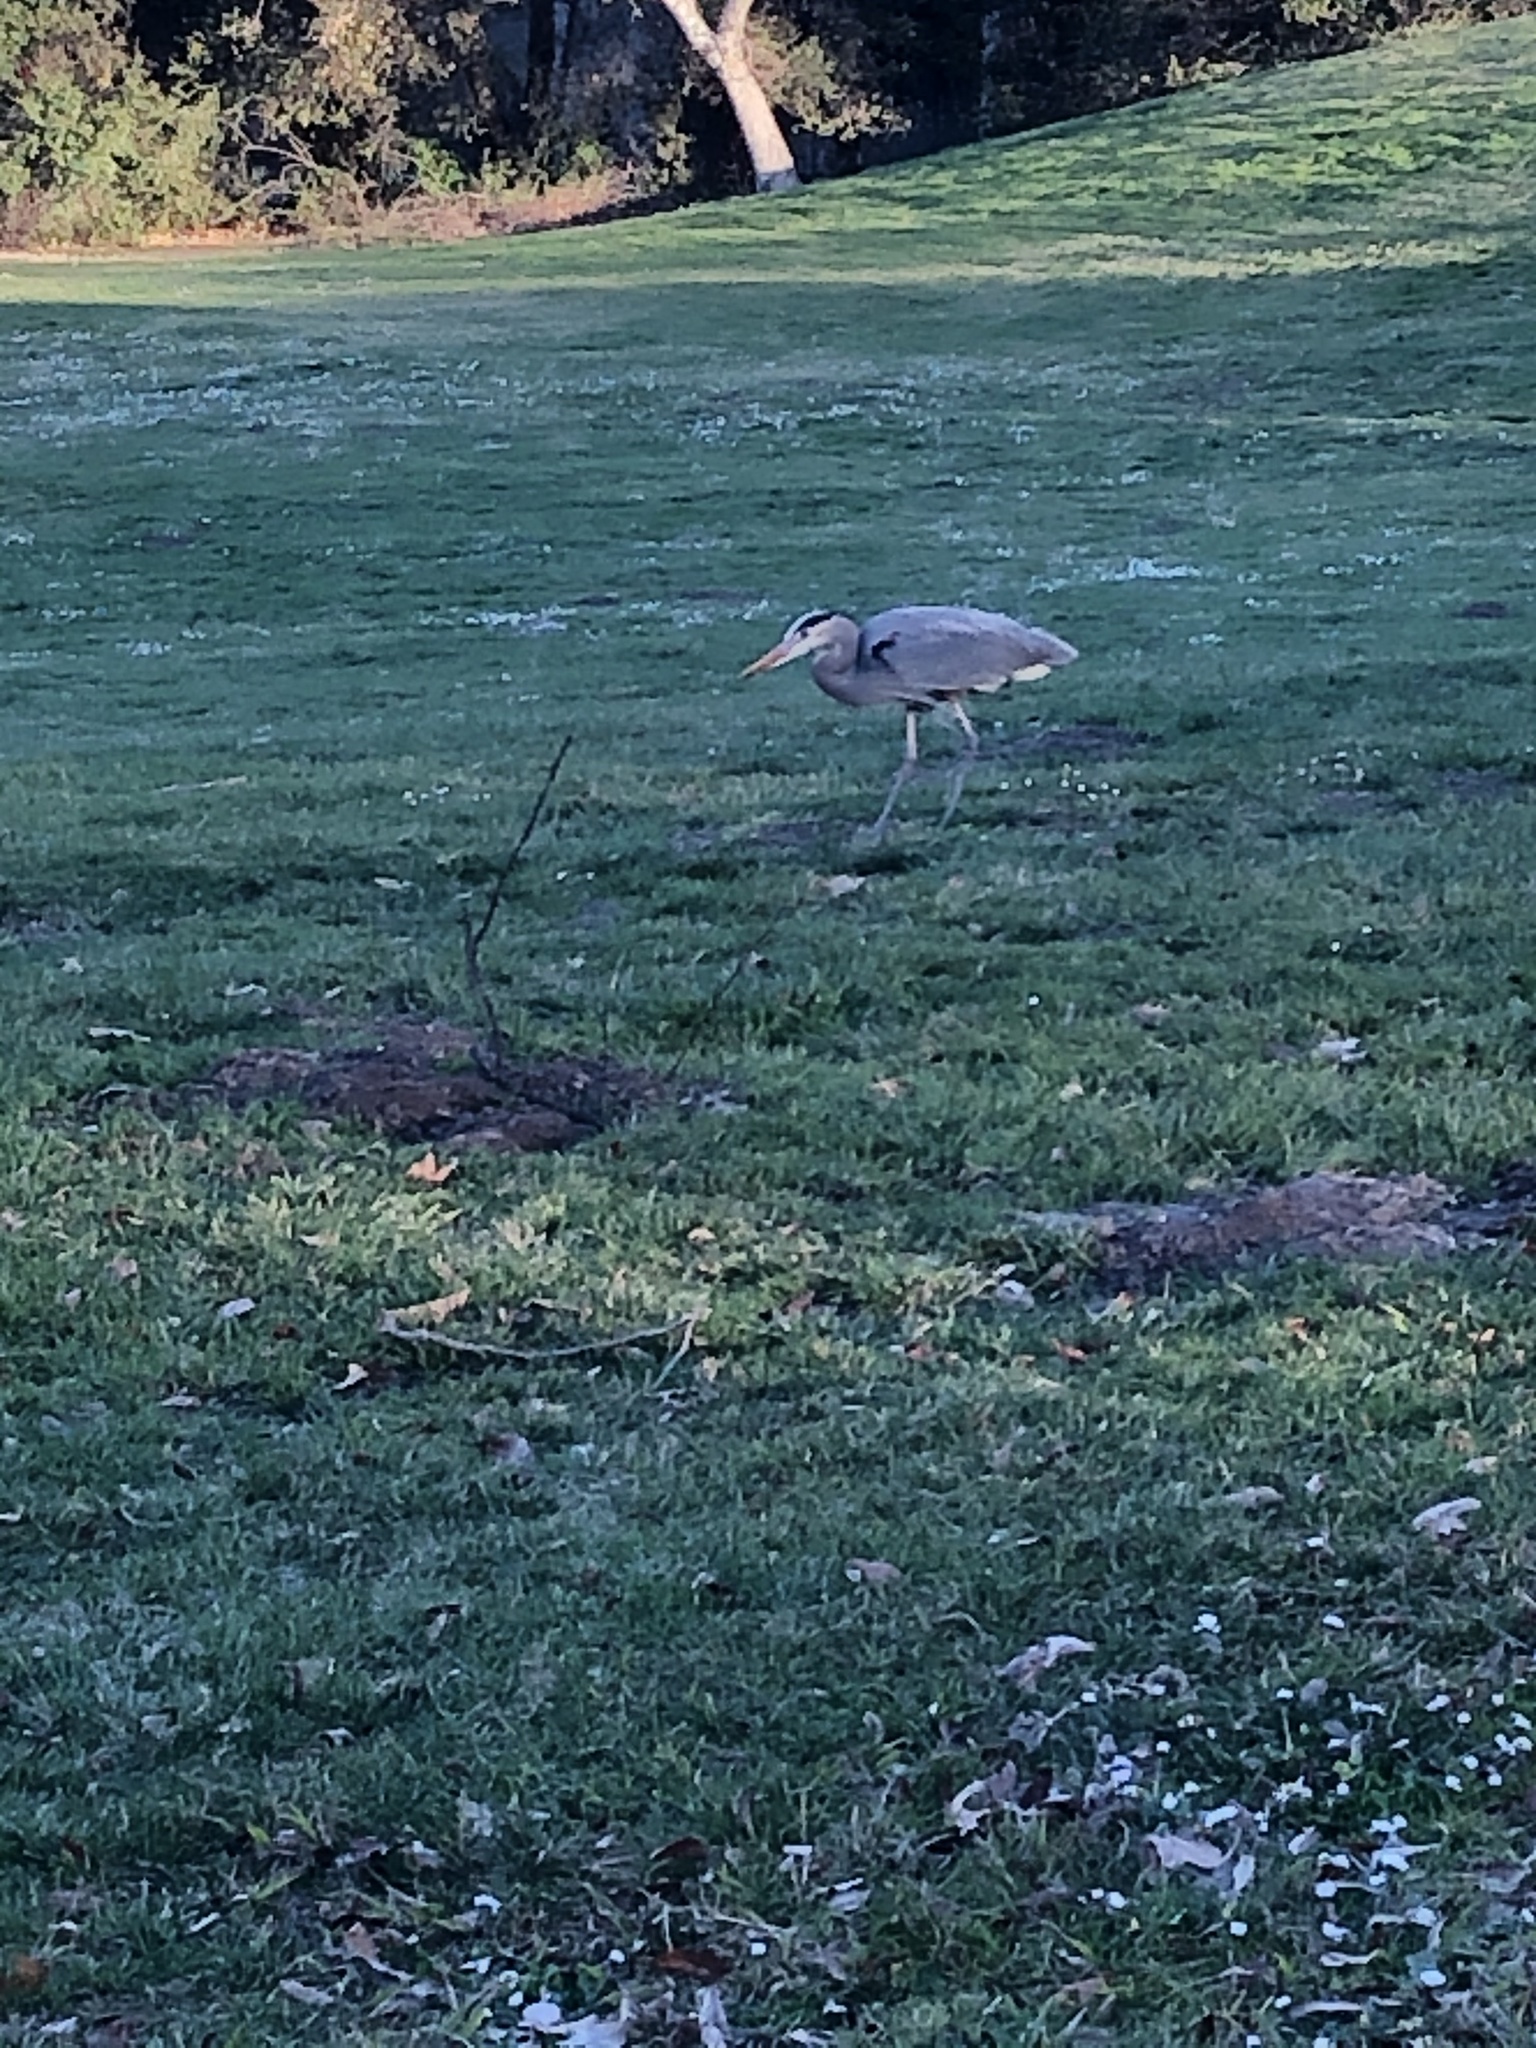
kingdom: Animalia
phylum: Chordata
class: Aves
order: Pelecaniformes
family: Ardeidae
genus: Ardea
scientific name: Ardea herodias
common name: Great blue heron
